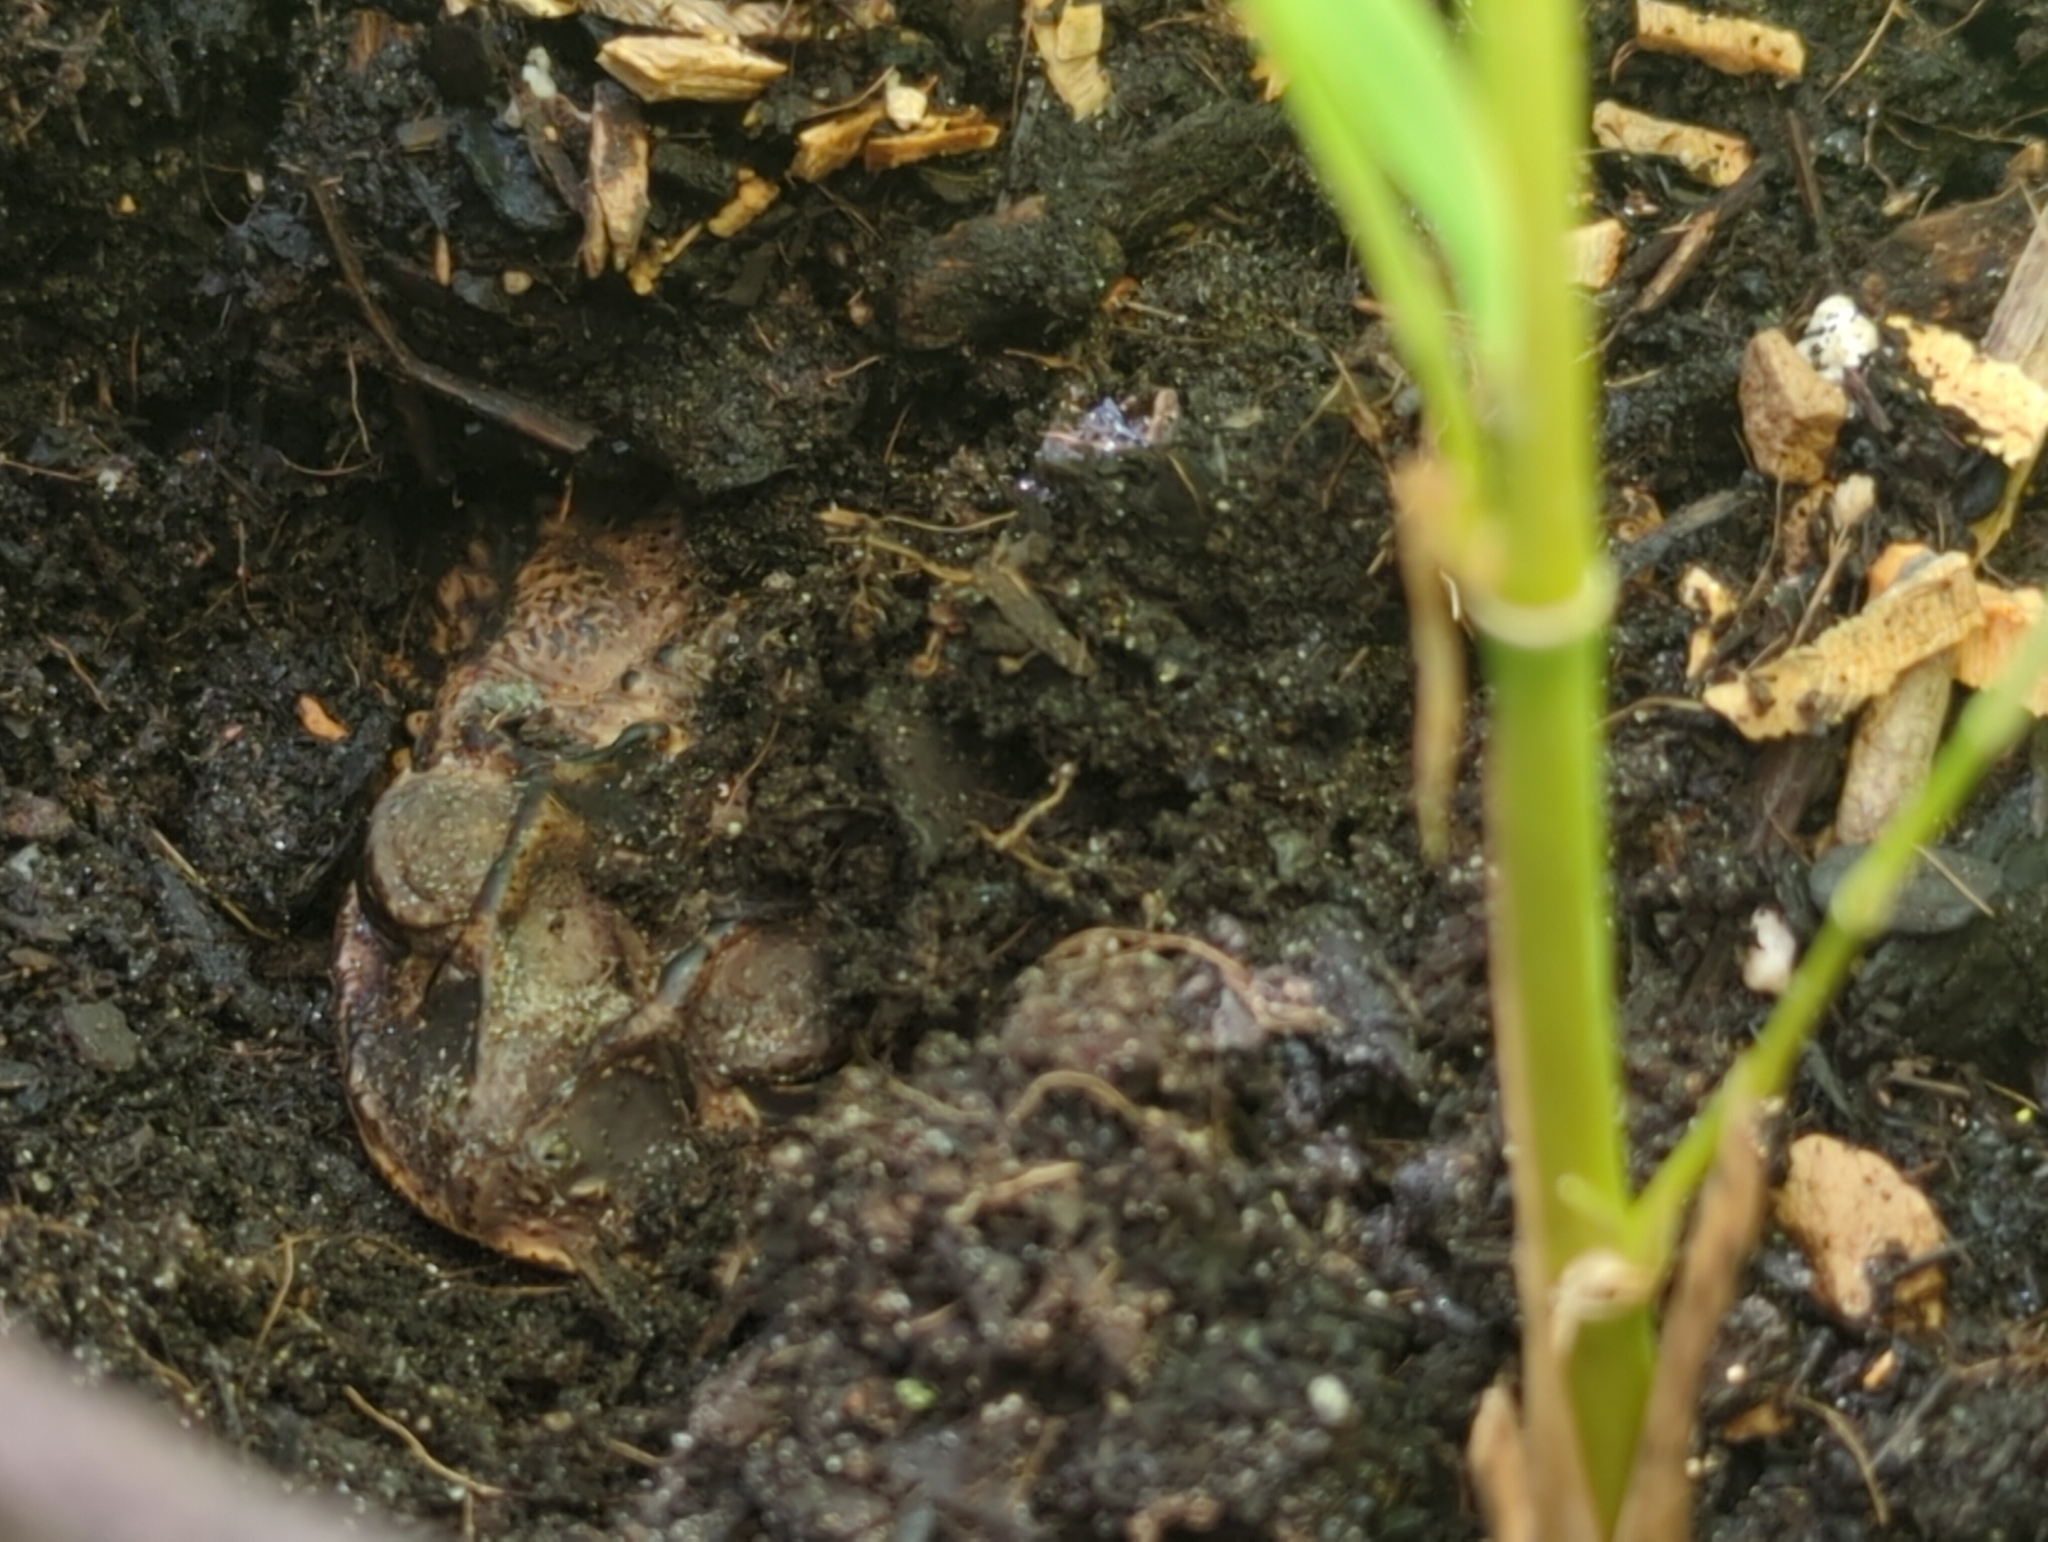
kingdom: Animalia
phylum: Chordata
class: Amphibia
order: Anura
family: Bufonidae
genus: Incilius
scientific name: Incilius nebulifer
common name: Gulf coast toad
